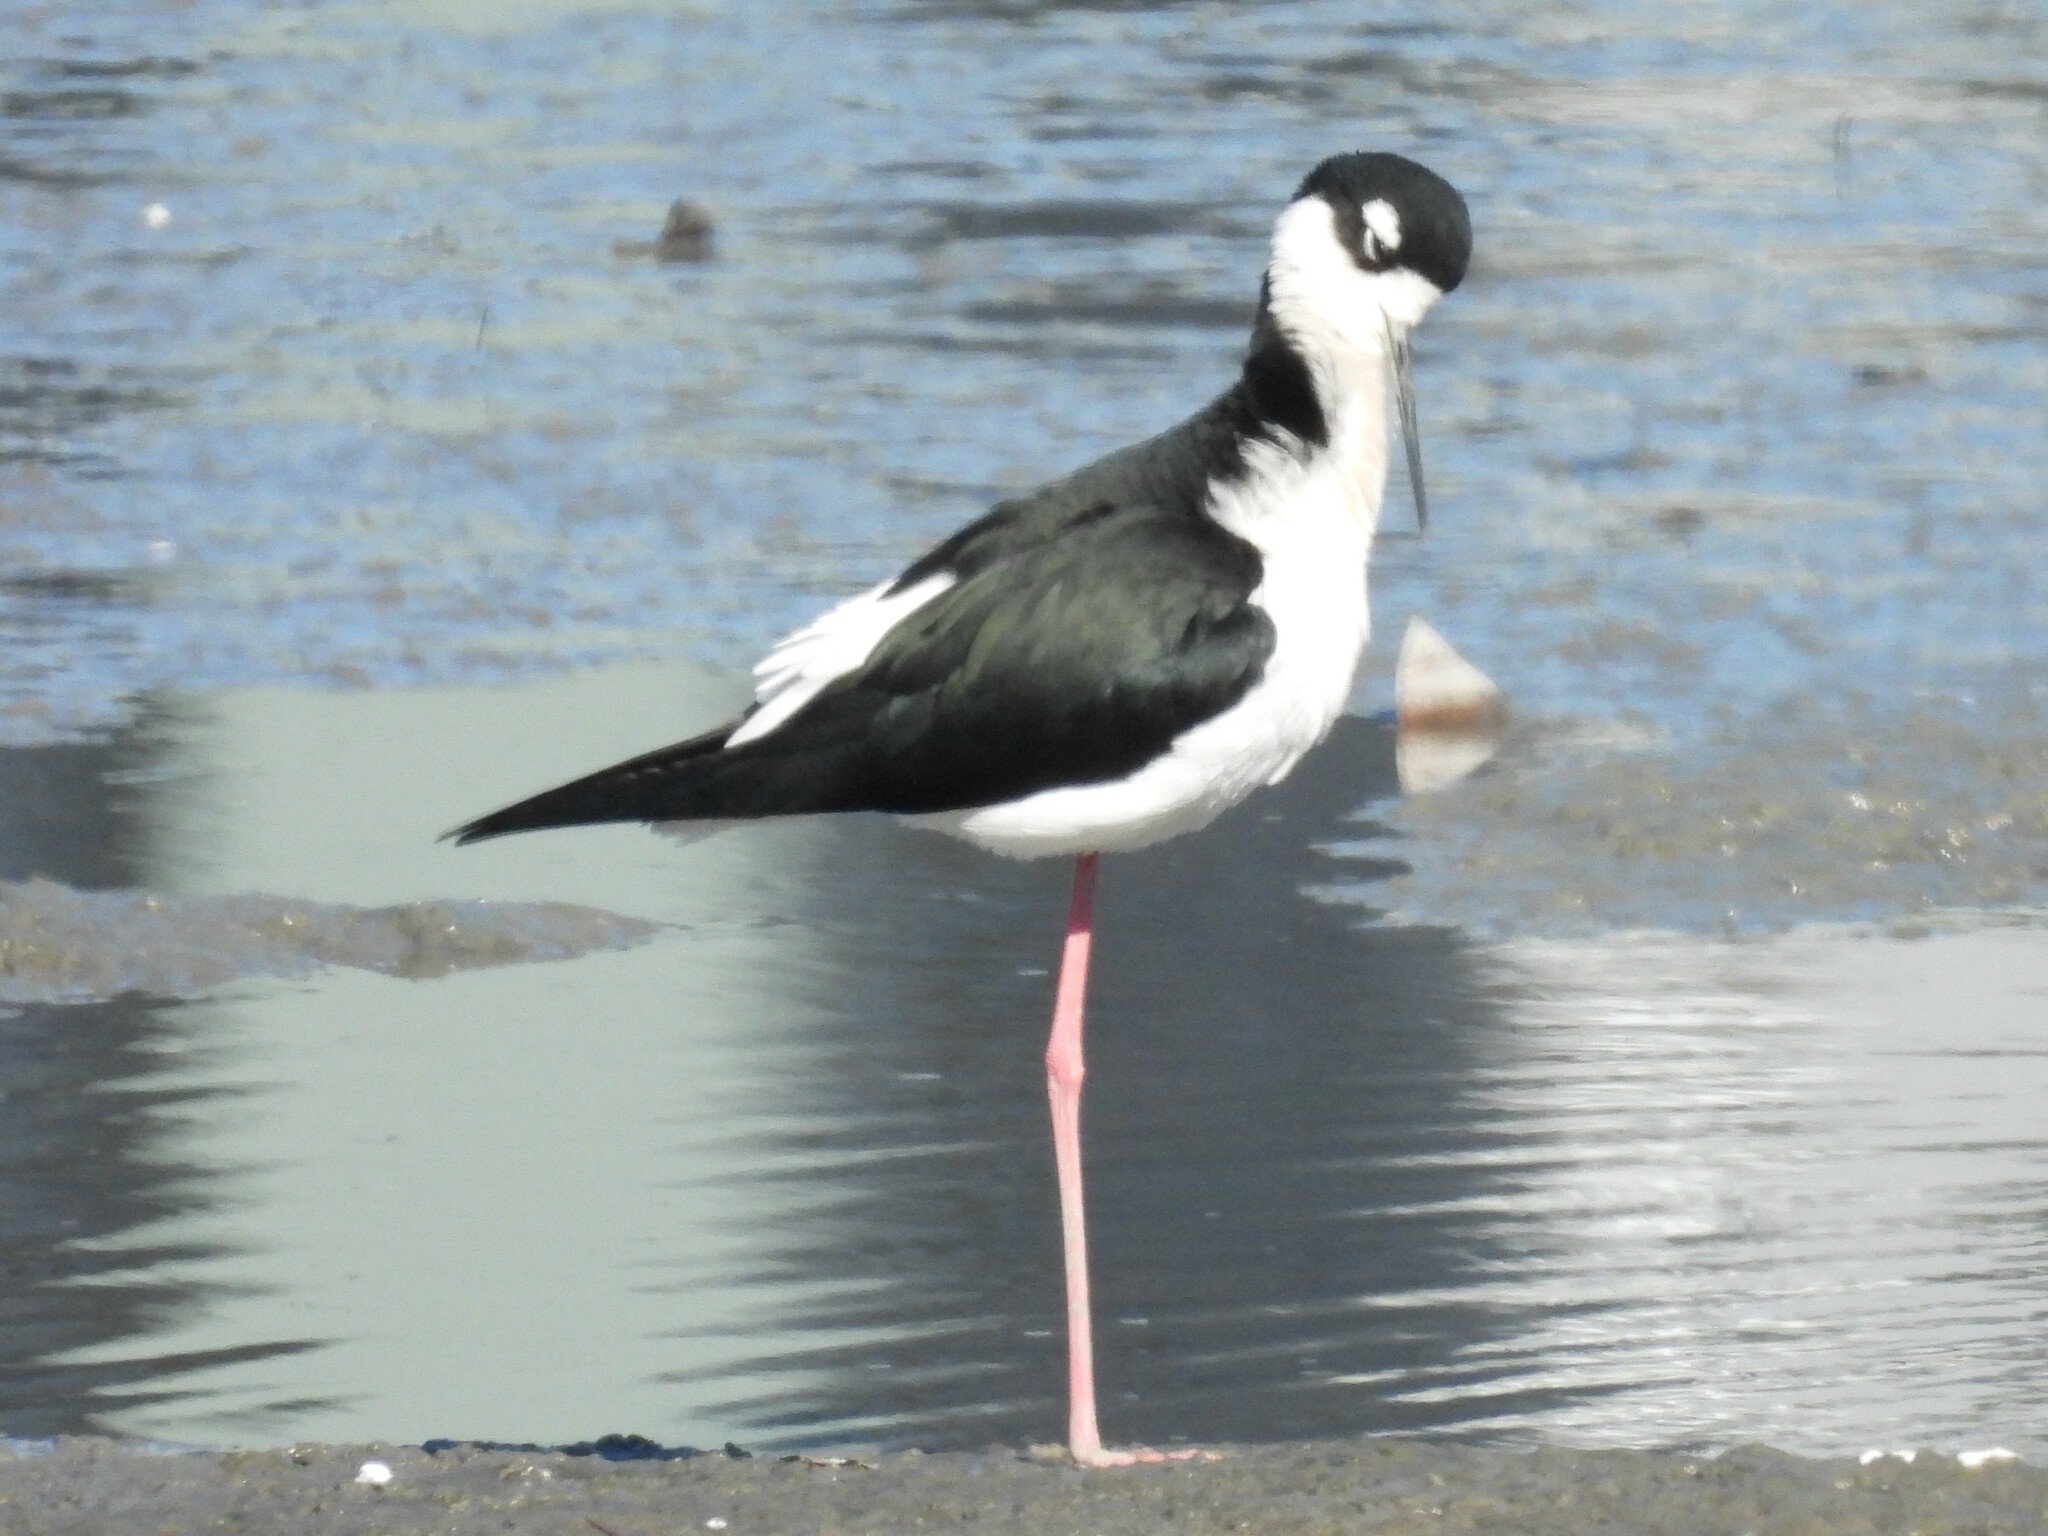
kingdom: Animalia
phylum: Chordata
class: Aves
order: Charadriiformes
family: Recurvirostridae
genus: Himantopus
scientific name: Himantopus mexicanus
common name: Black-necked stilt
